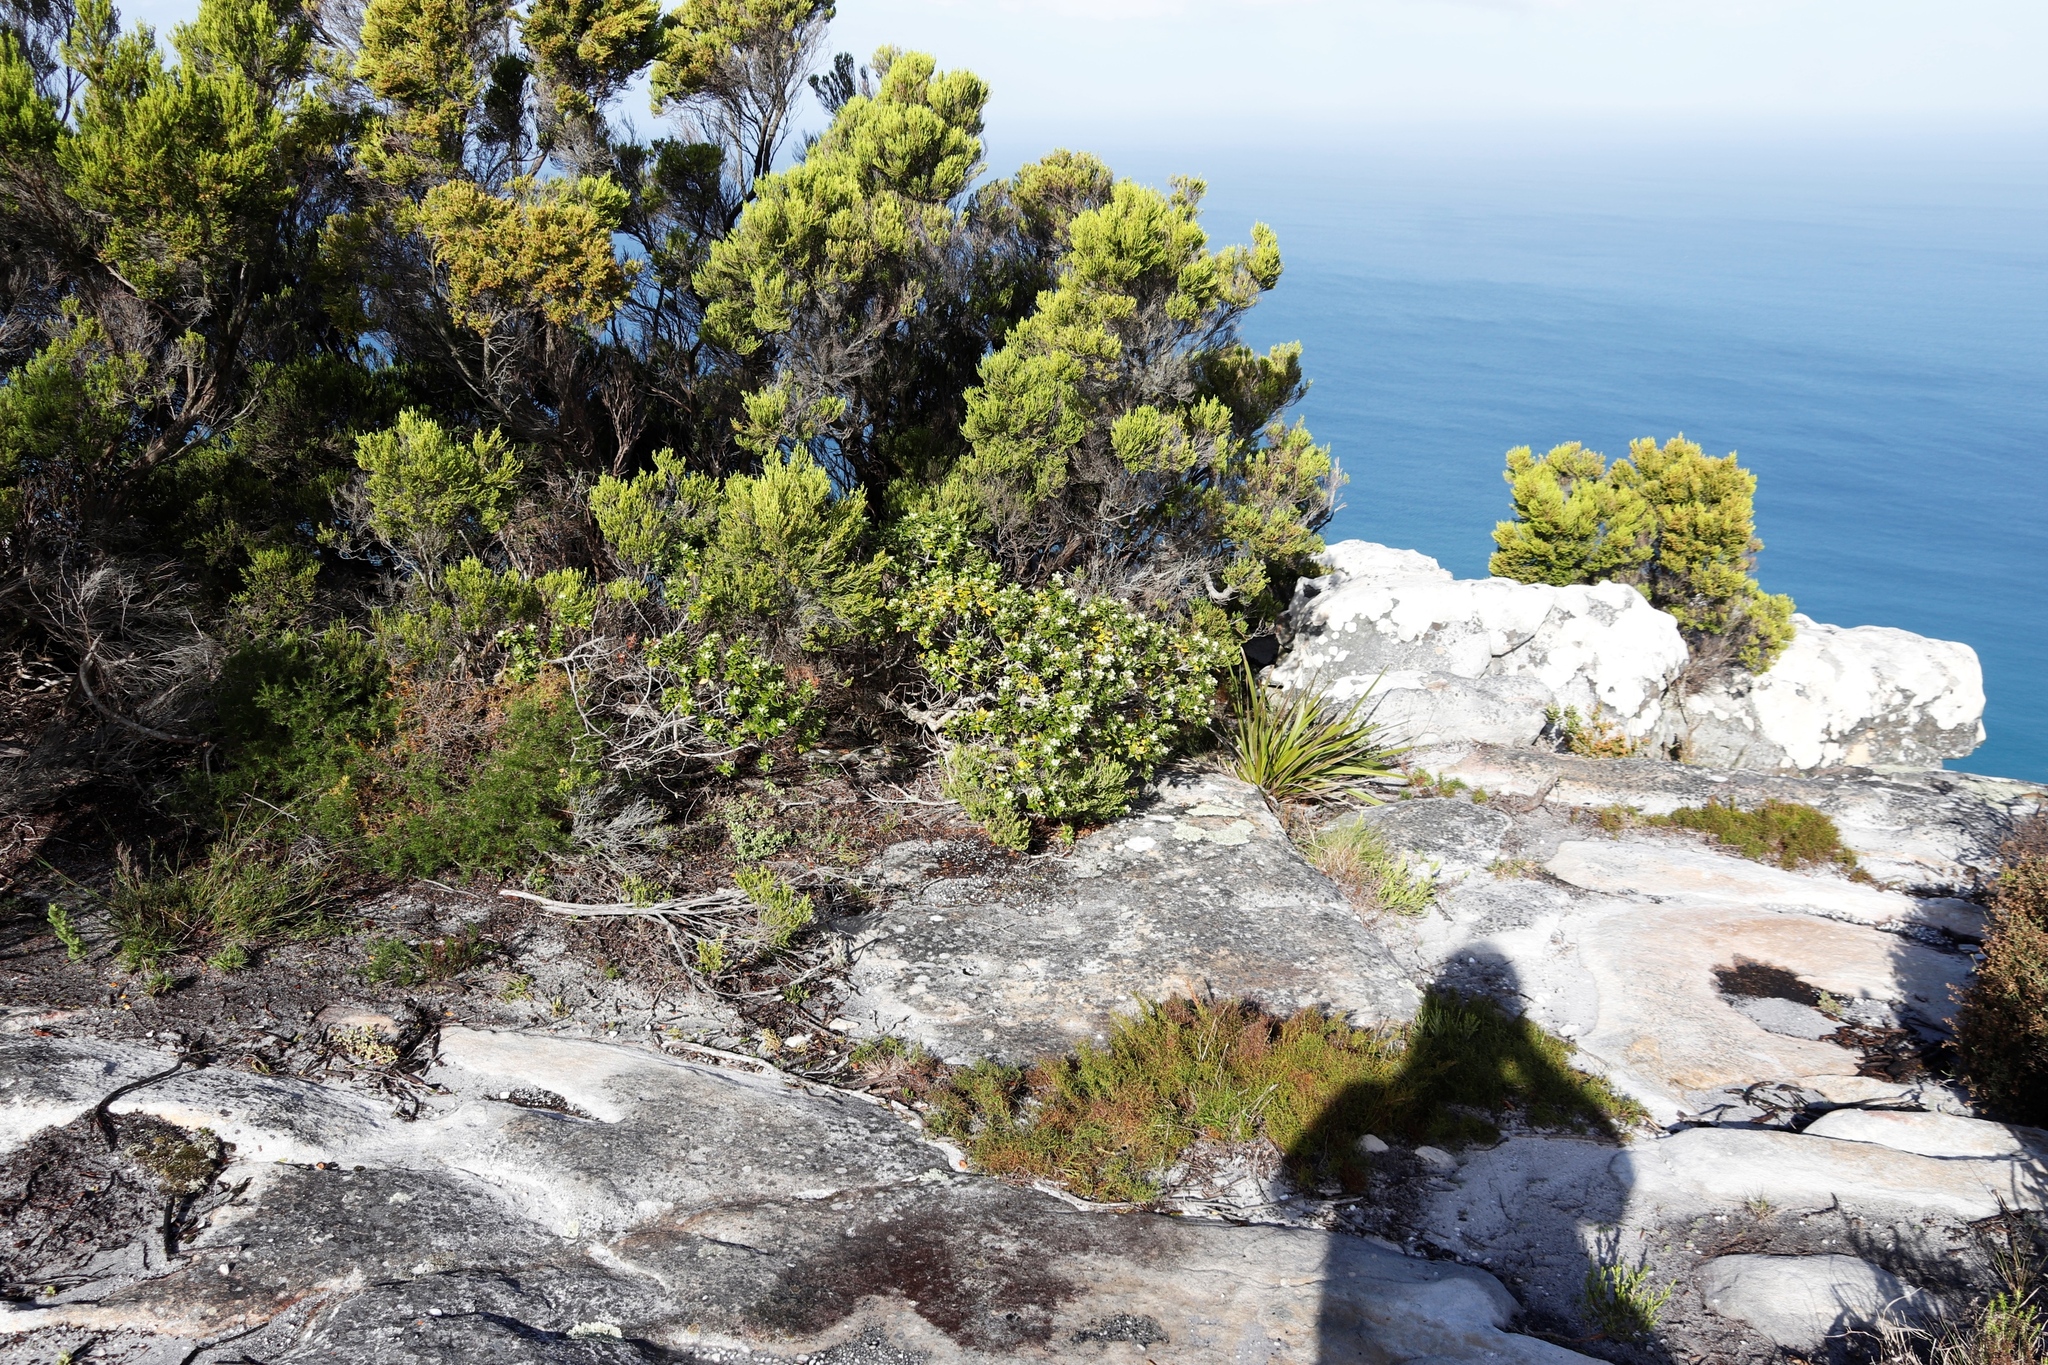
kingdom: Plantae
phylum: Tracheophyta
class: Magnoliopsida
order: Ericales
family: Ericaceae
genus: Erica
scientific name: Erica tristis
